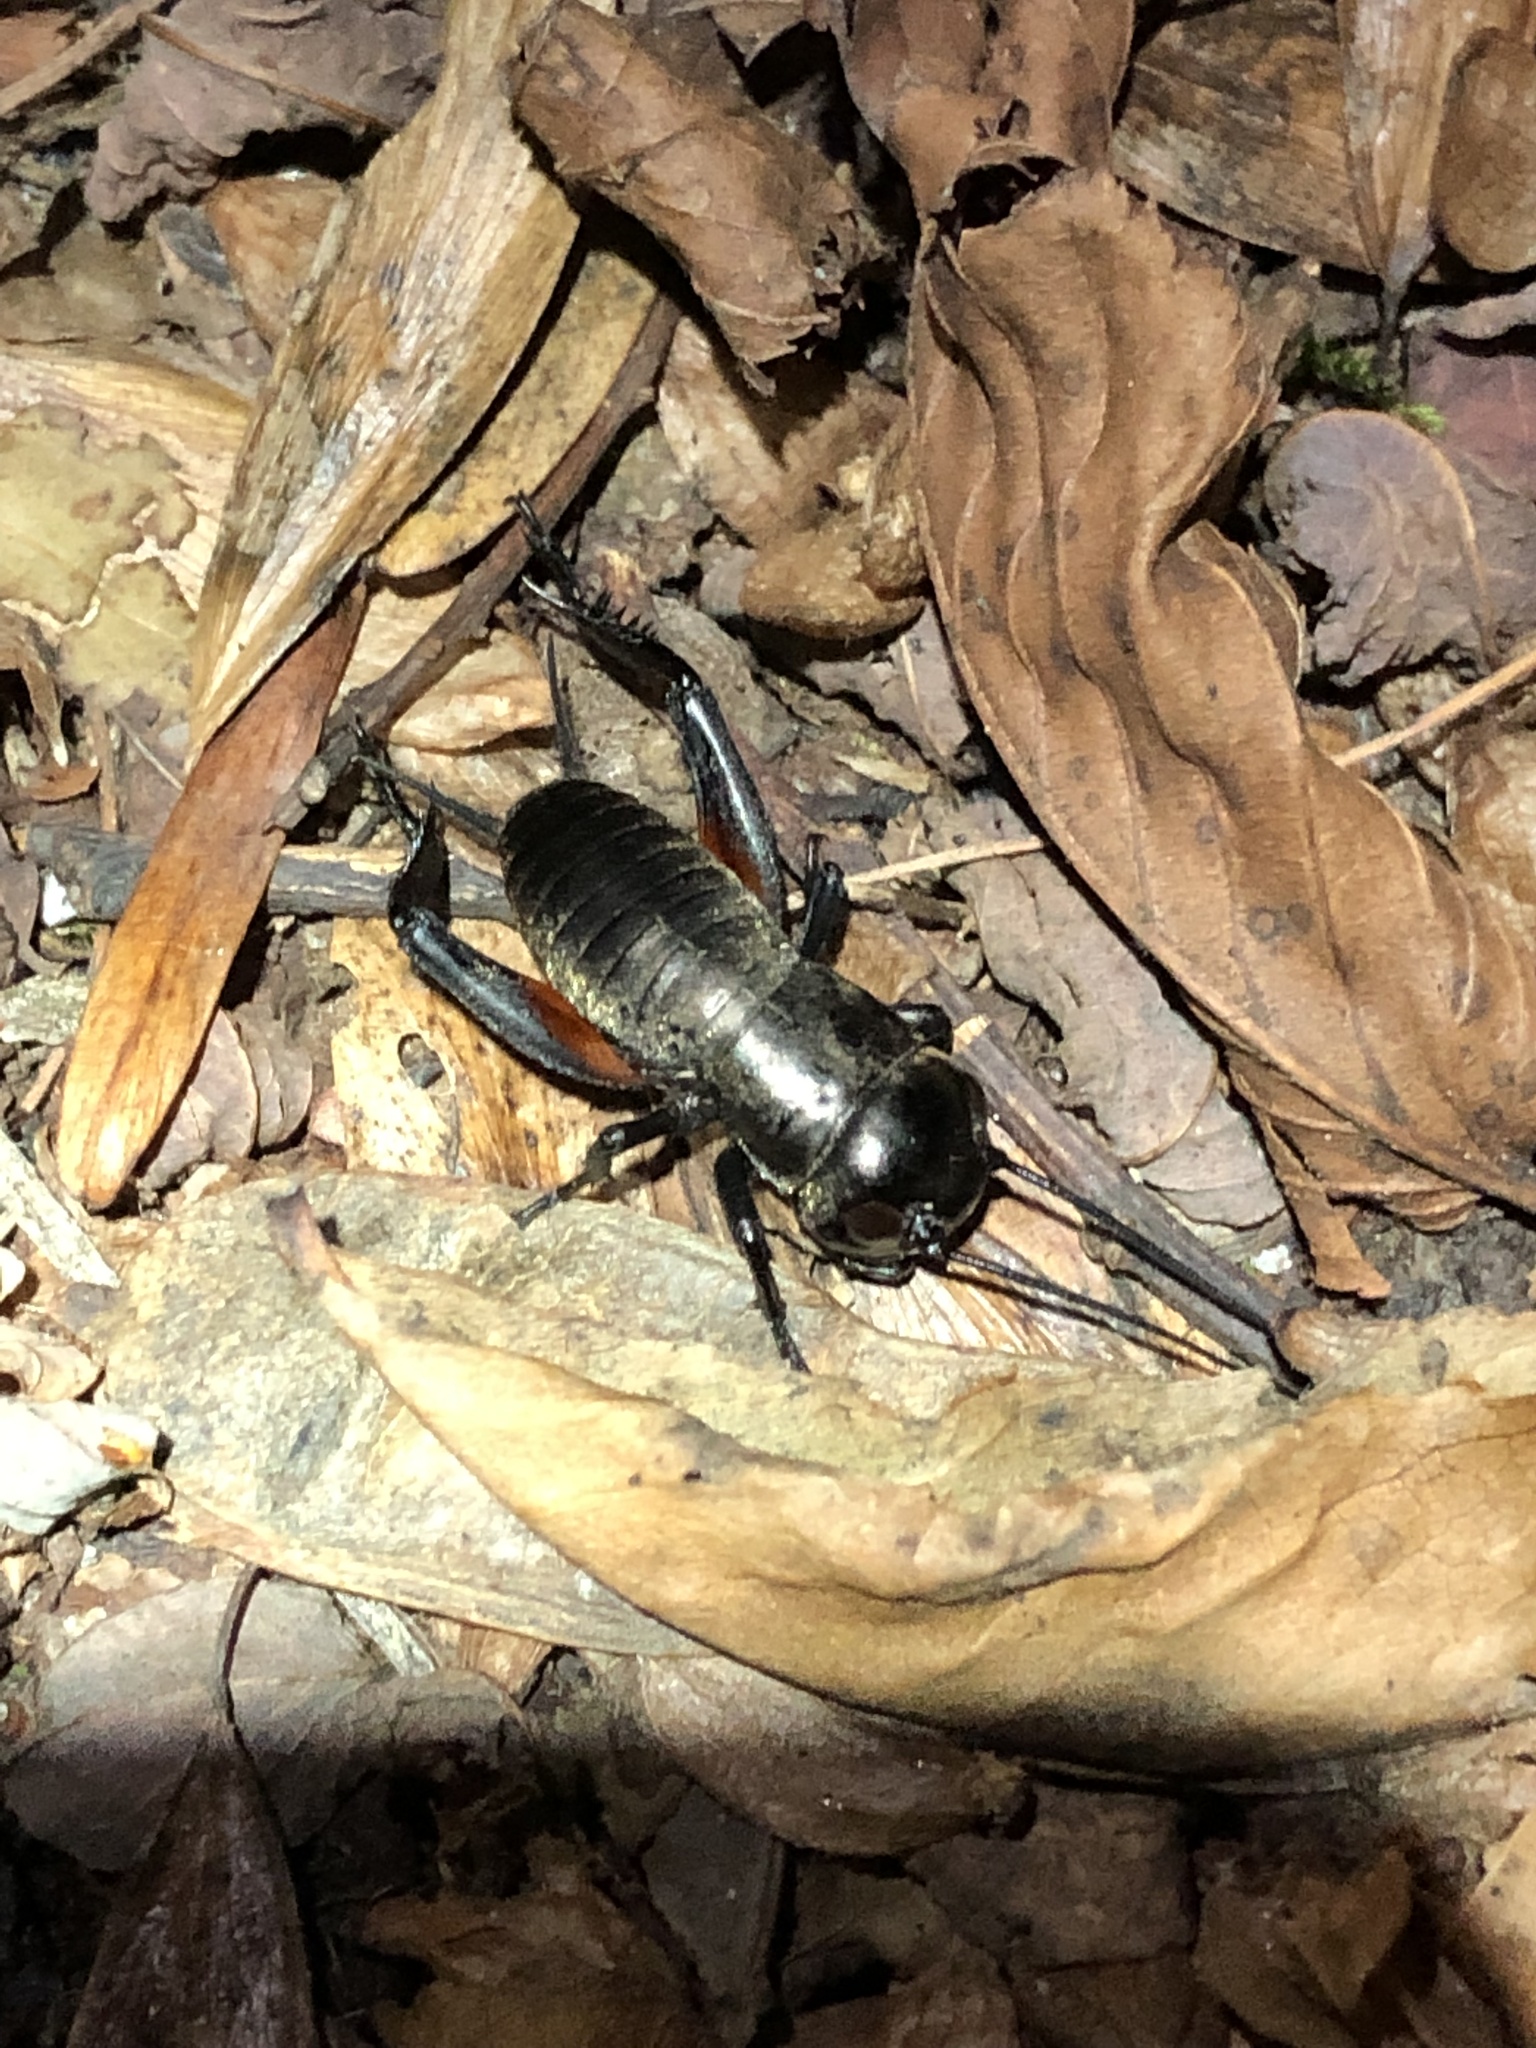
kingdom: Animalia
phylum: Arthropoda
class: Insecta
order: Orthoptera
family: Gryllidae
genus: Gryllus
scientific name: Gryllus campestris
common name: Field cricket
